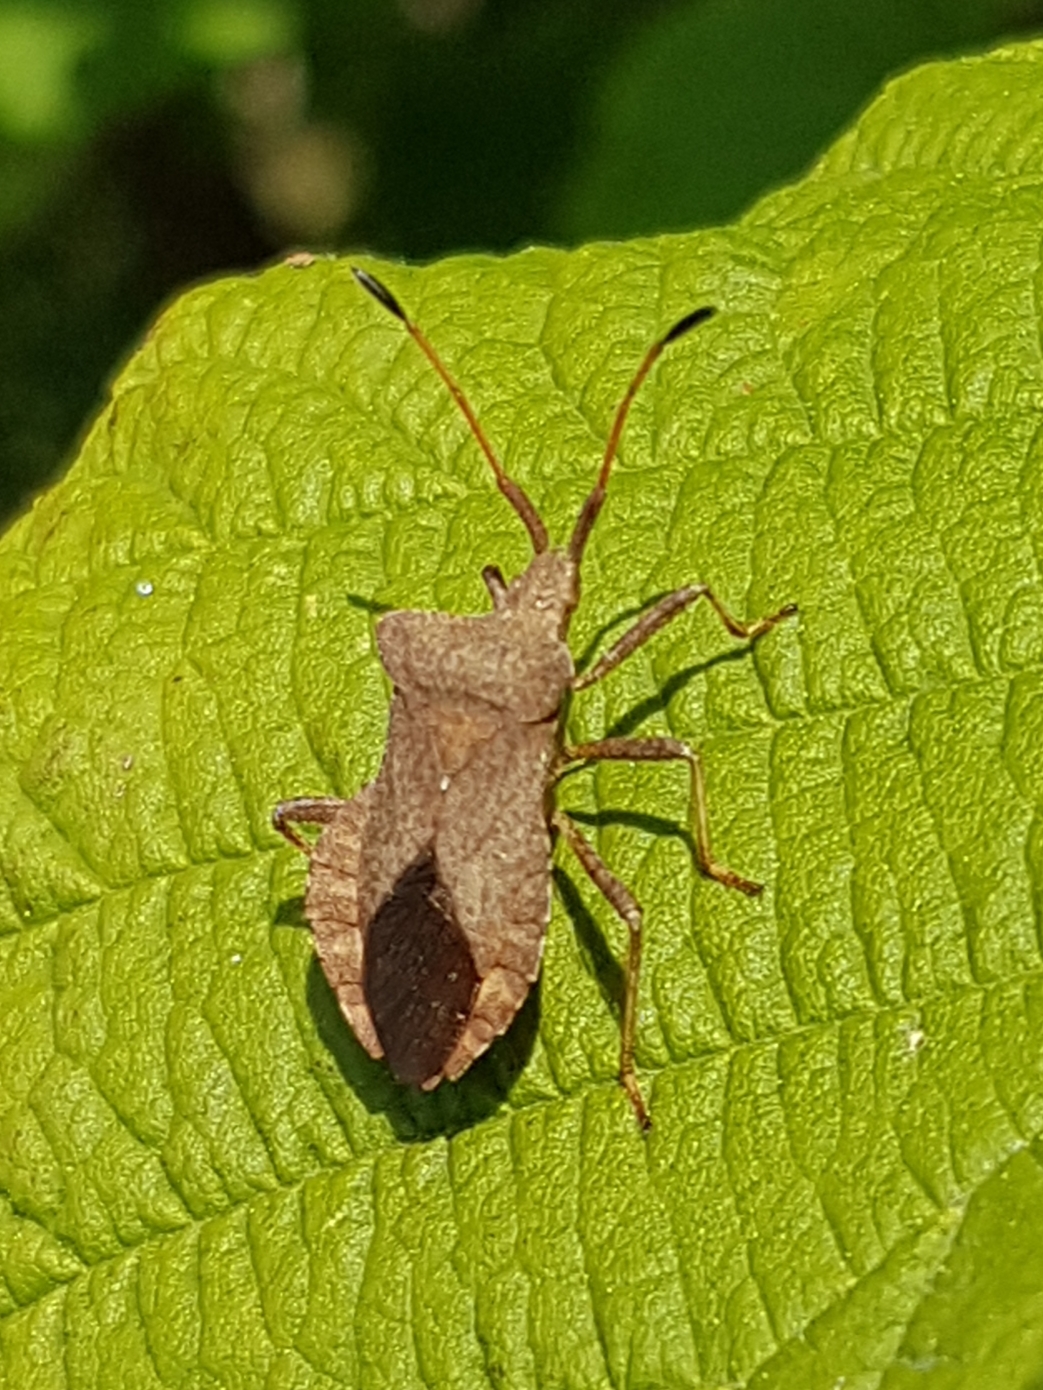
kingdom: Animalia
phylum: Arthropoda
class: Insecta
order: Hemiptera
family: Coreidae
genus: Coreus
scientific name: Coreus marginatus
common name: Dock bug
